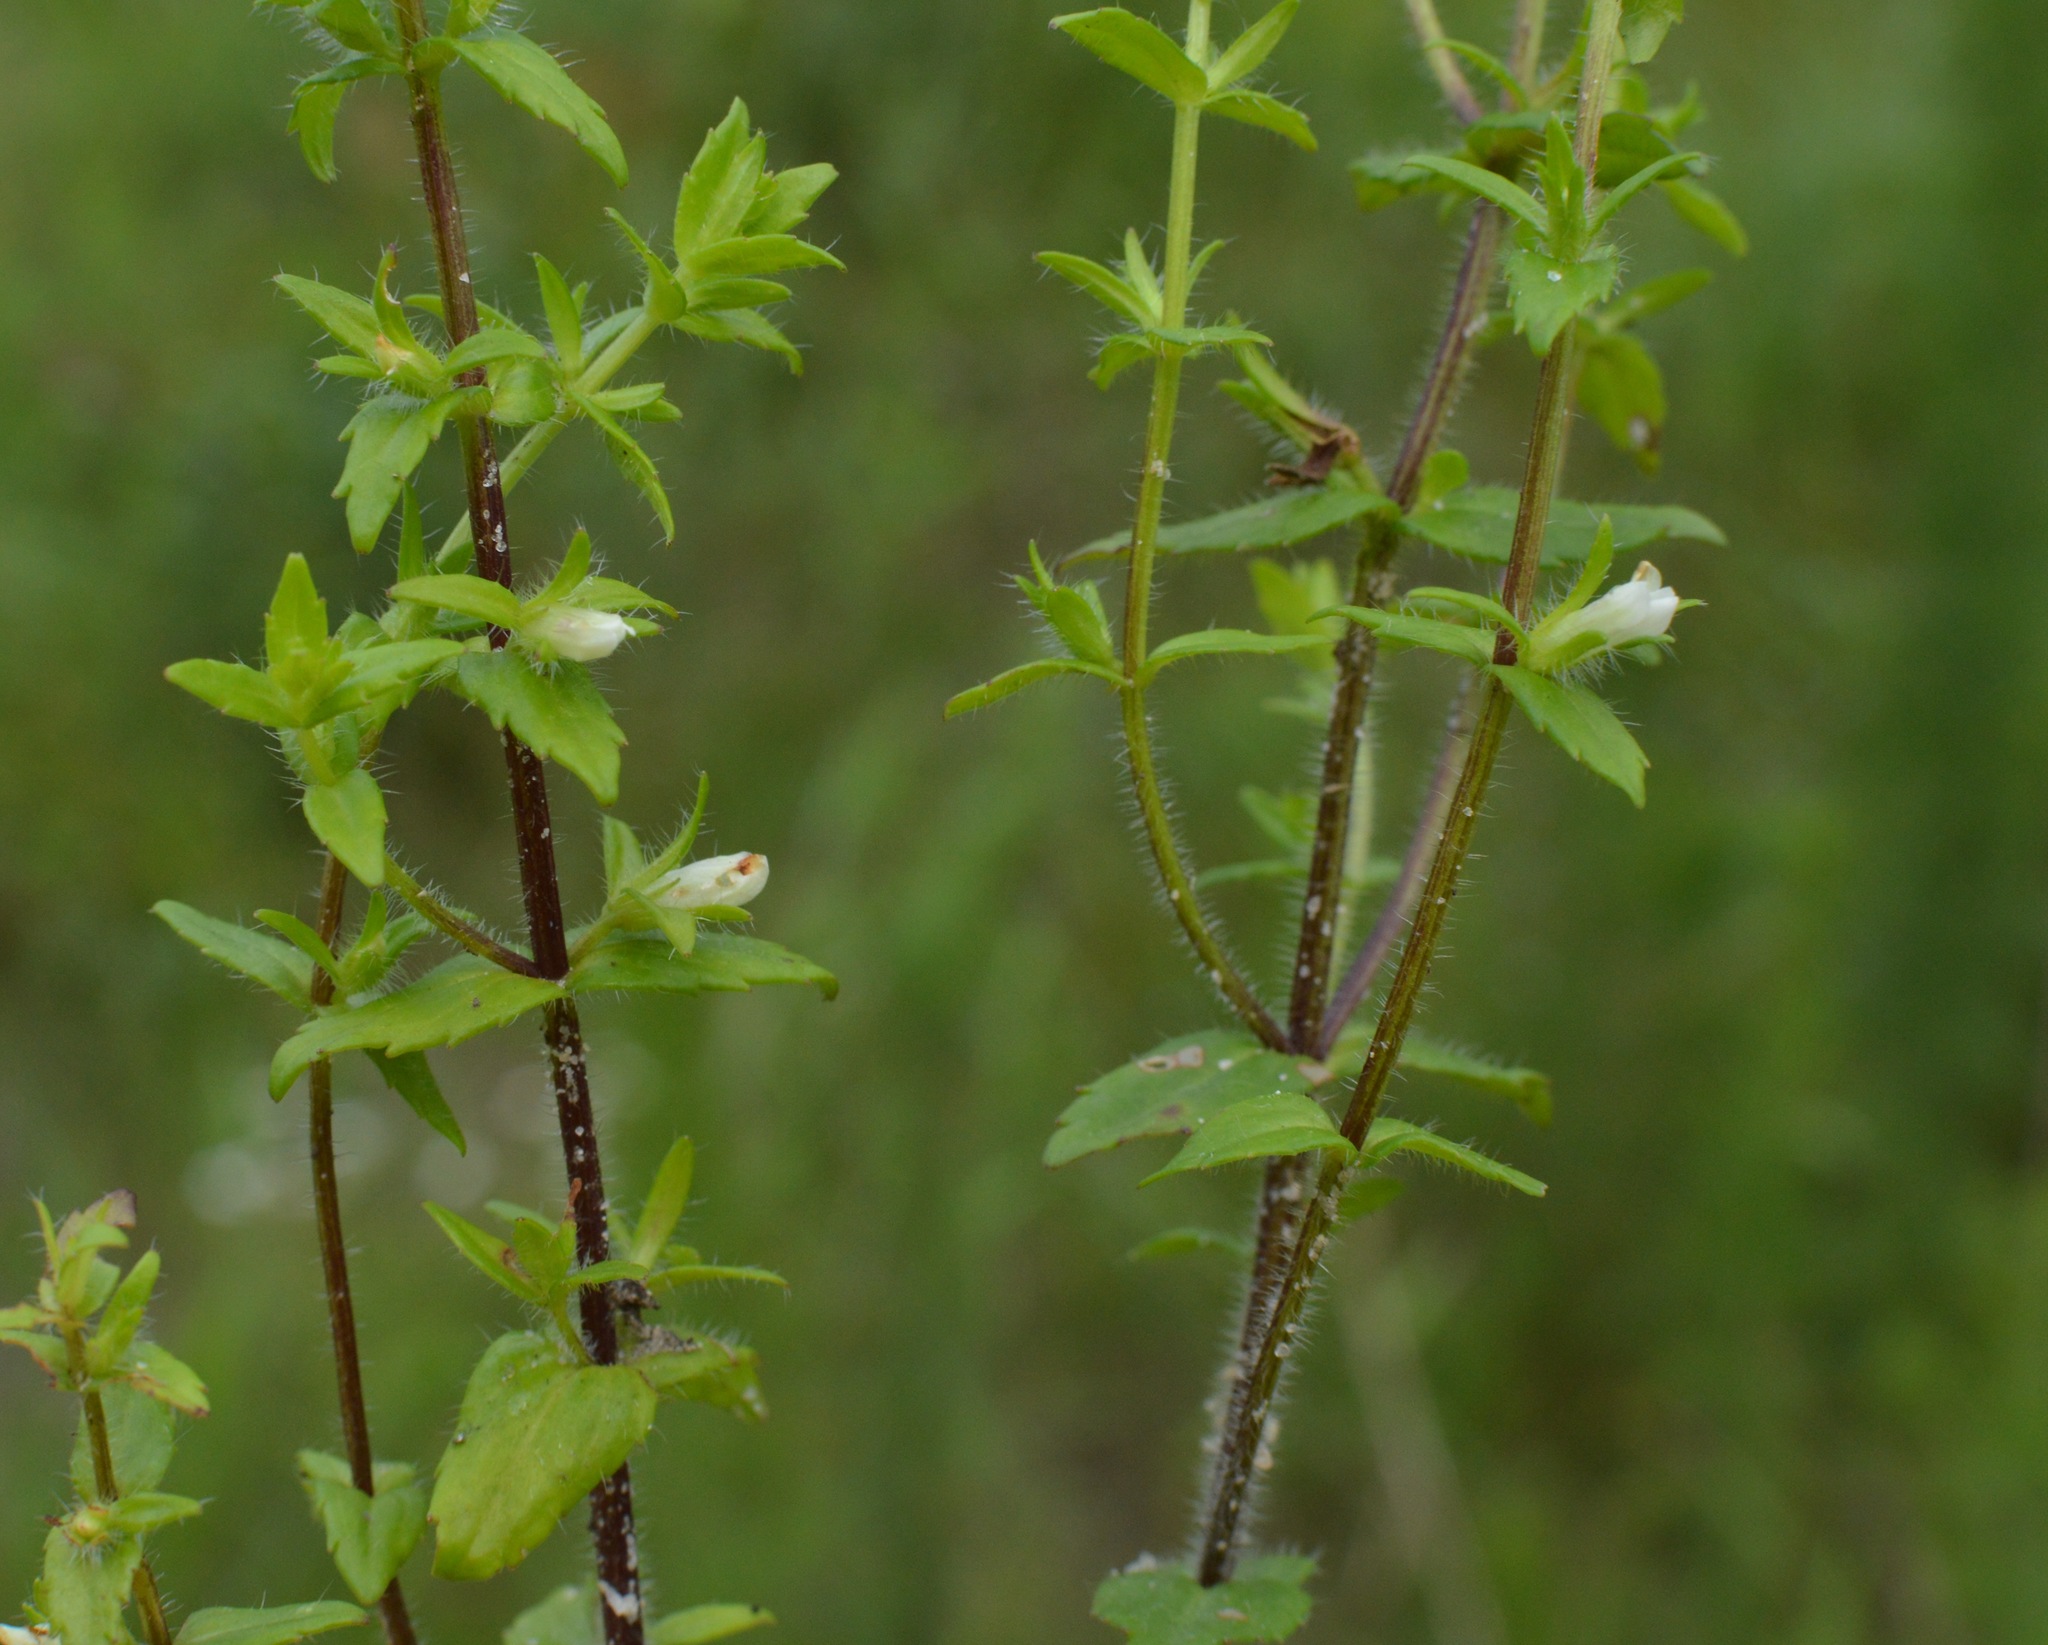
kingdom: Plantae
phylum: Tracheophyta
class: Magnoliopsida
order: Lamiales
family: Plantaginaceae
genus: Gratiola
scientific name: Gratiola pilosa
